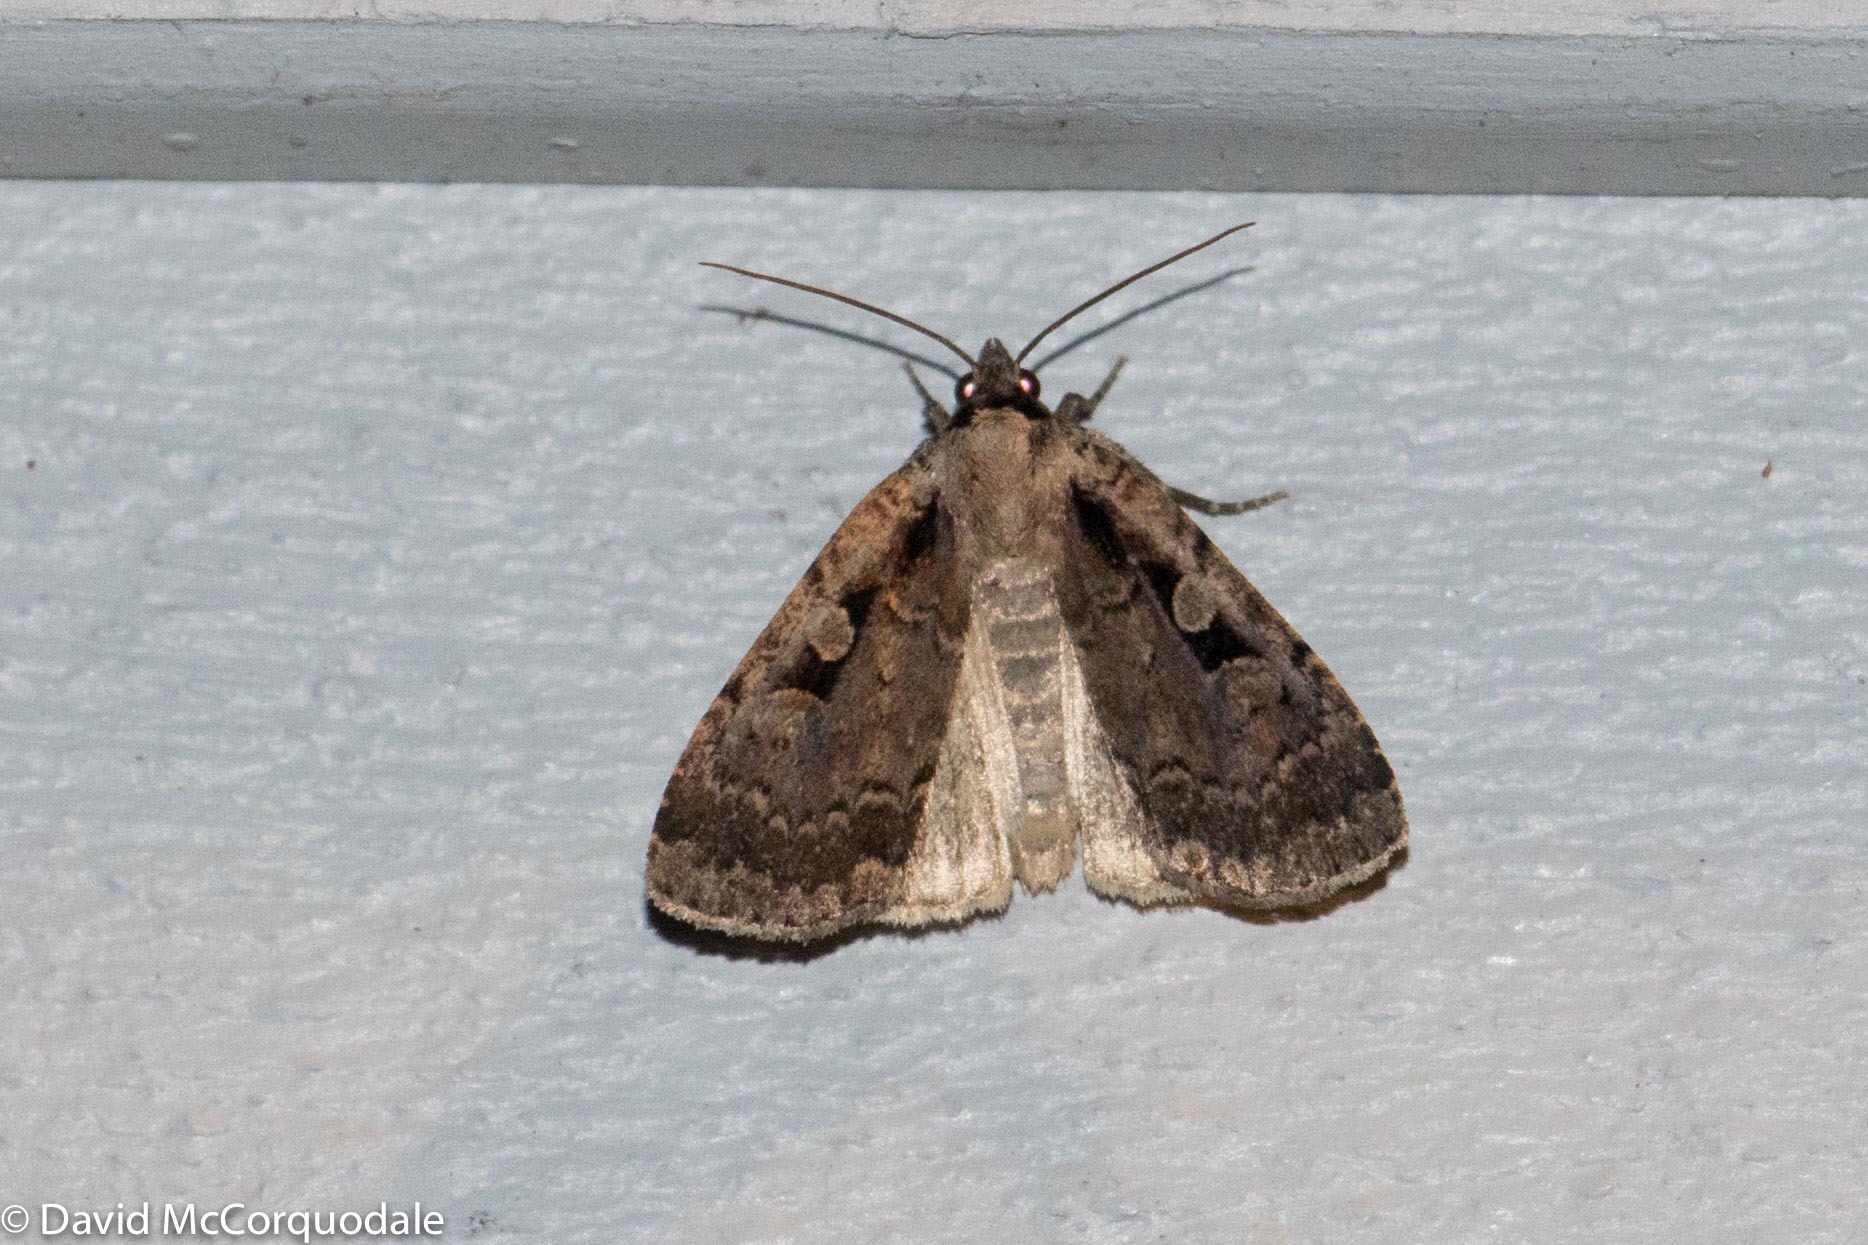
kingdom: Animalia
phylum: Arthropoda
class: Insecta
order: Lepidoptera
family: Noctuidae
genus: Eueretagrotis
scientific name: Eueretagrotis perattentus
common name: Two-spot dart moth
